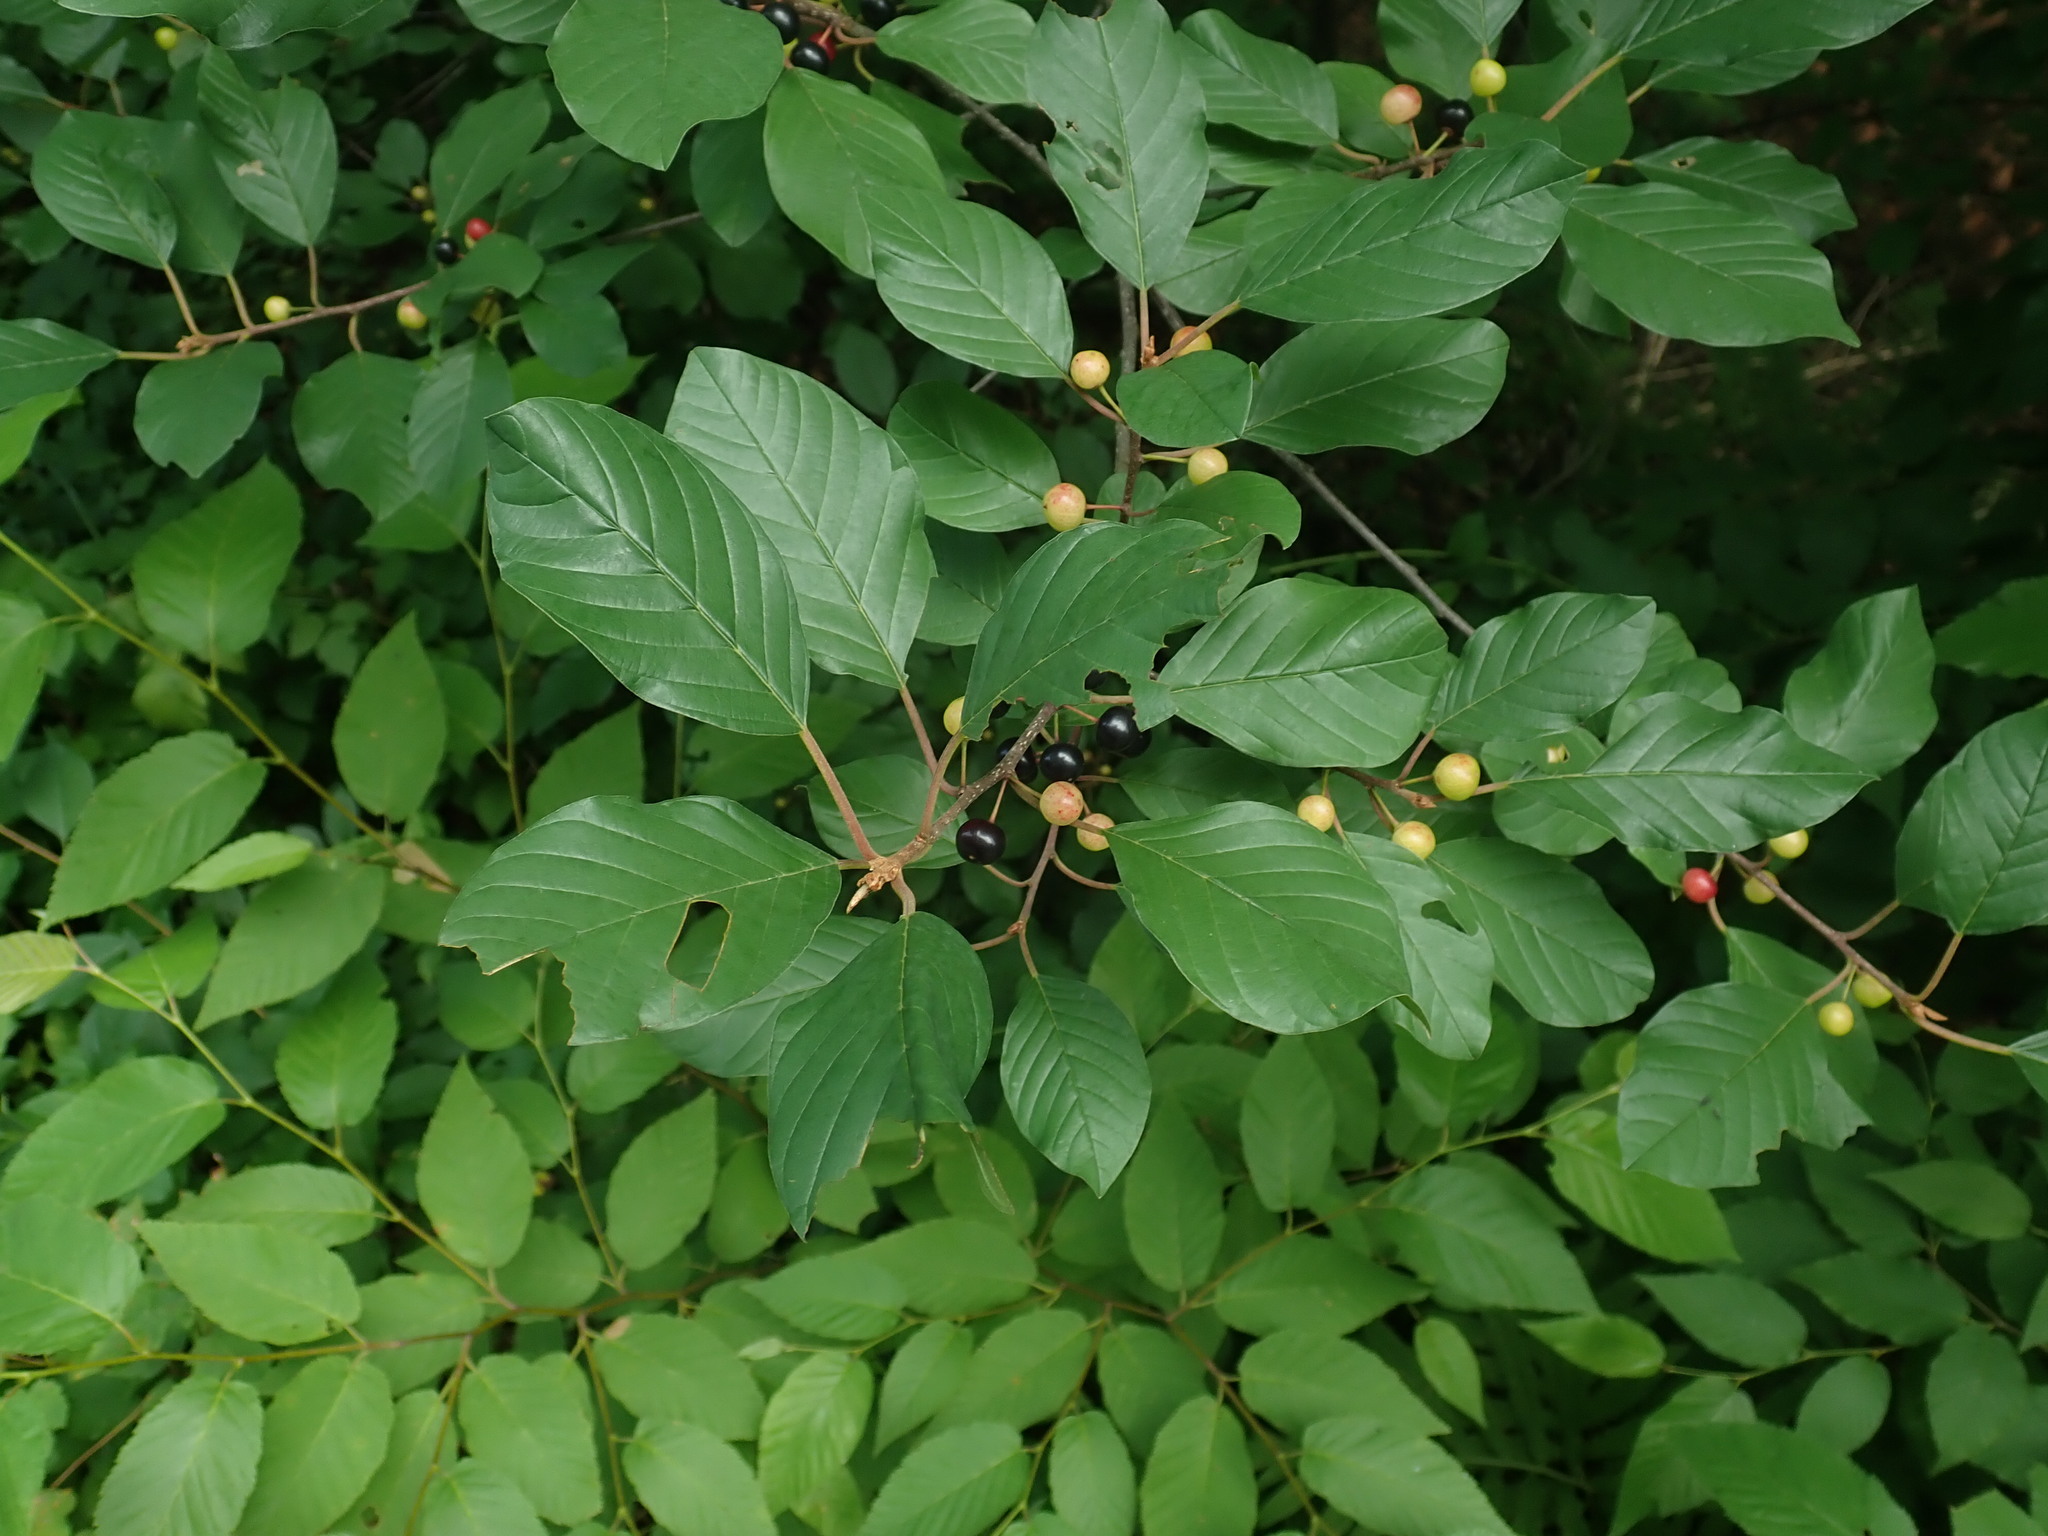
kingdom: Plantae
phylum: Tracheophyta
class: Magnoliopsida
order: Rosales
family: Rhamnaceae
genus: Frangula
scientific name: Frangula alnus
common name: Alder buckthorn
